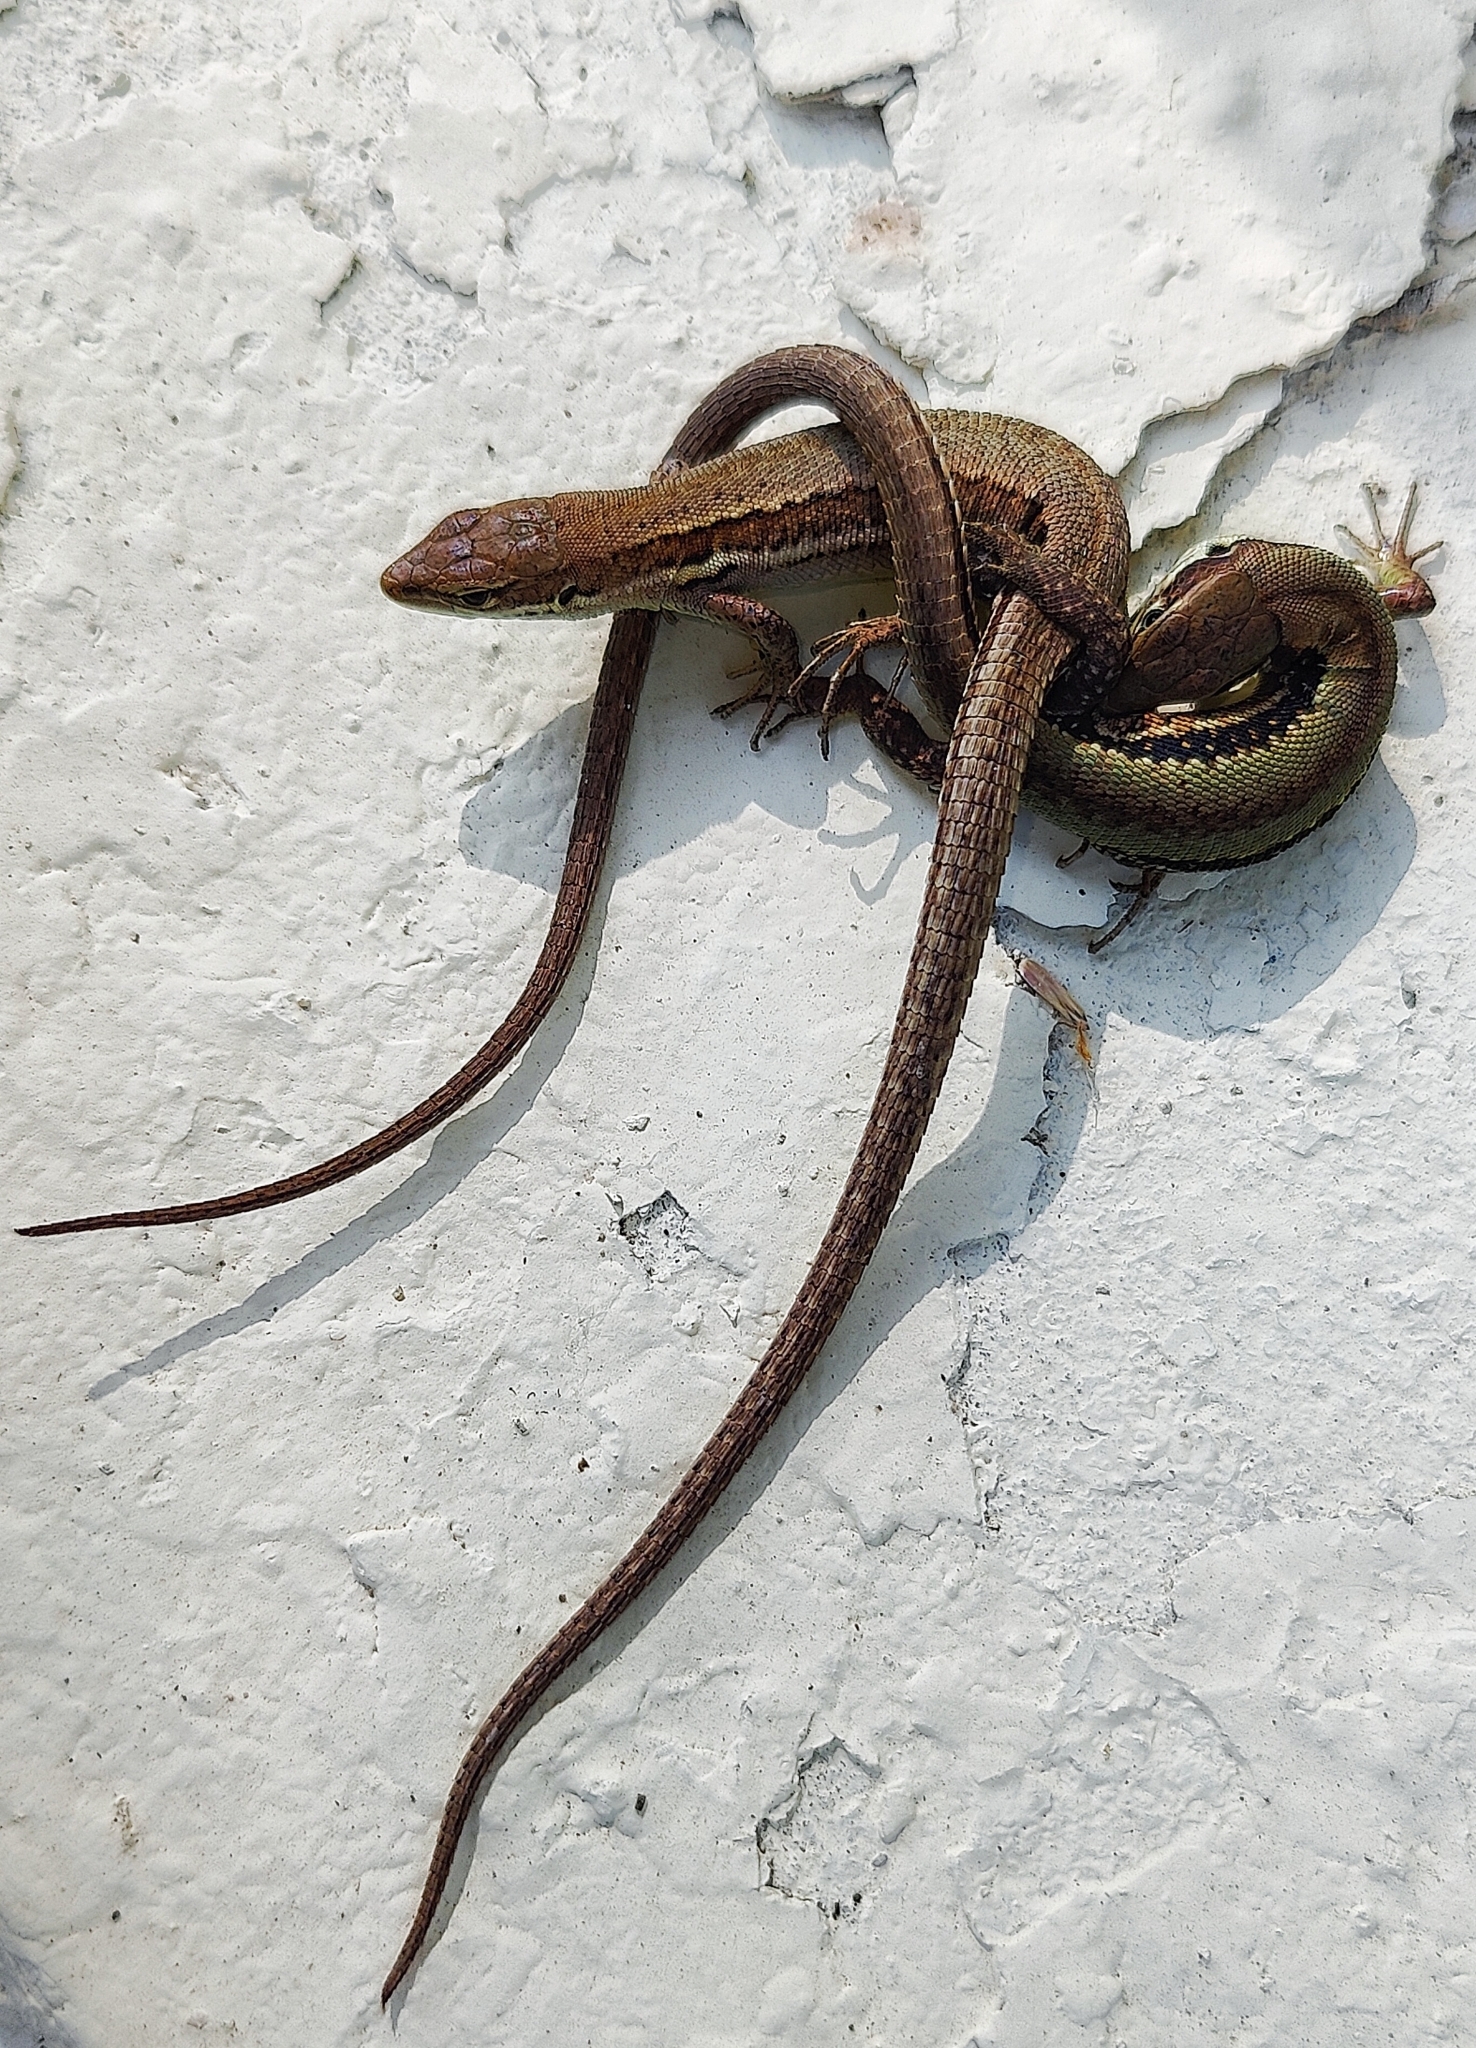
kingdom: Animalia
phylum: Chordata
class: Squamata
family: Lacertidae
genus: Darevskia
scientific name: Darevskia praticola
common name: Meadow lizard
